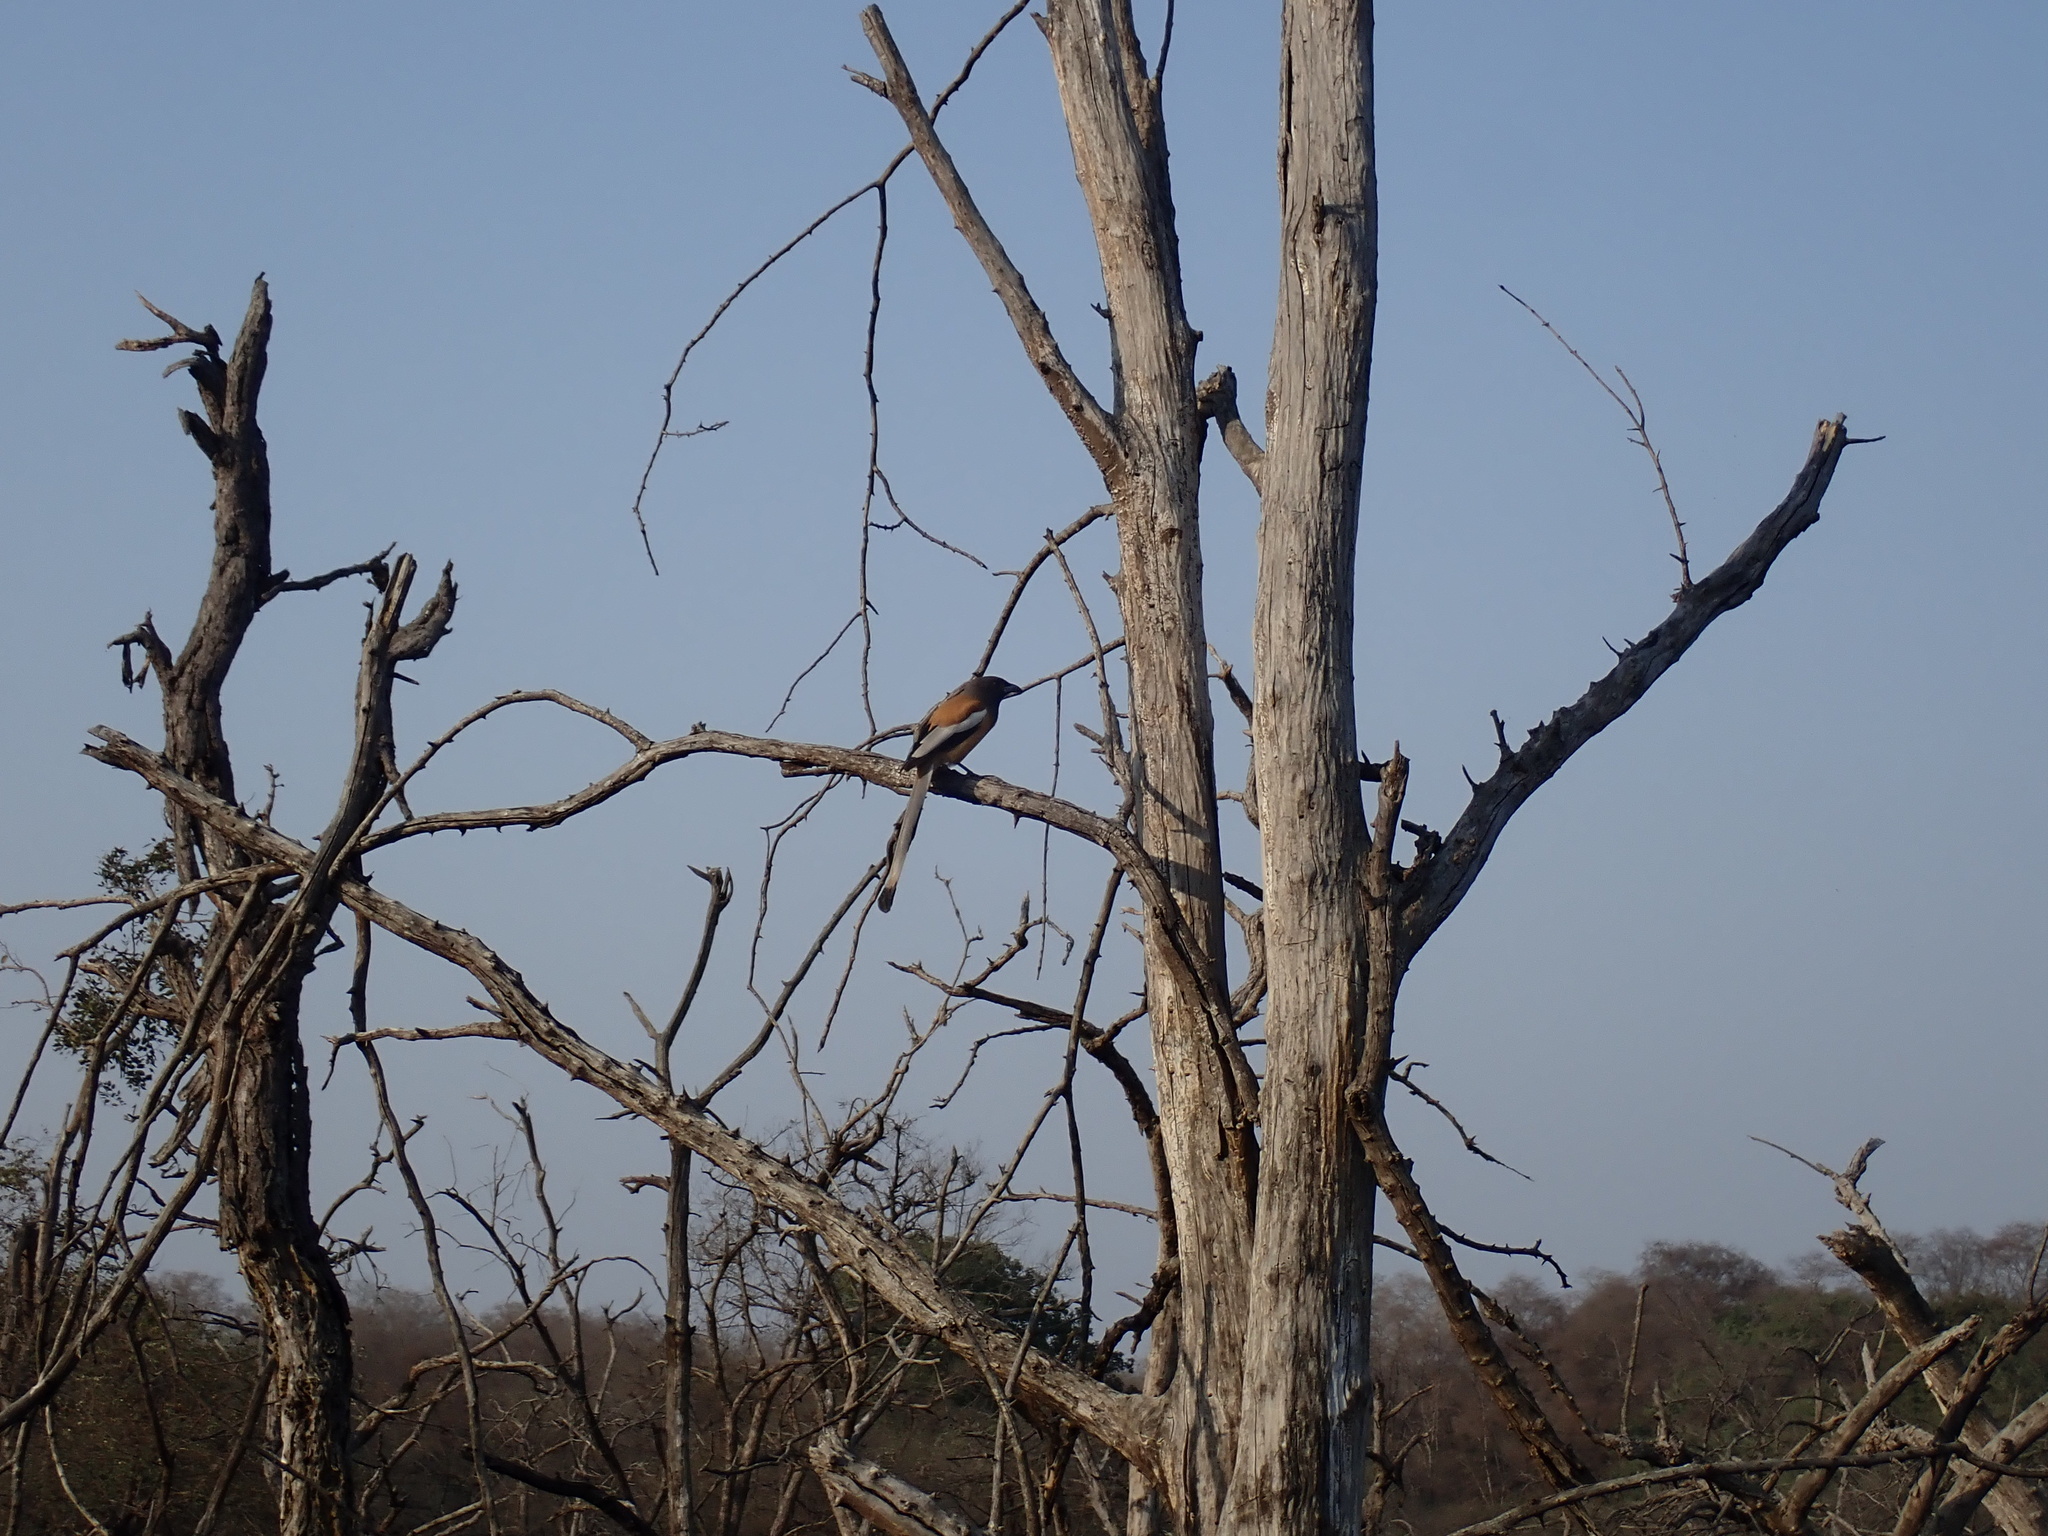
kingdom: Animalia
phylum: Chordata
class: Aves
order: Passeriformes
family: Corvidae
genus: Dendrocitta
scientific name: Dendrocitta vagabunda
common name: Rufous treepie
